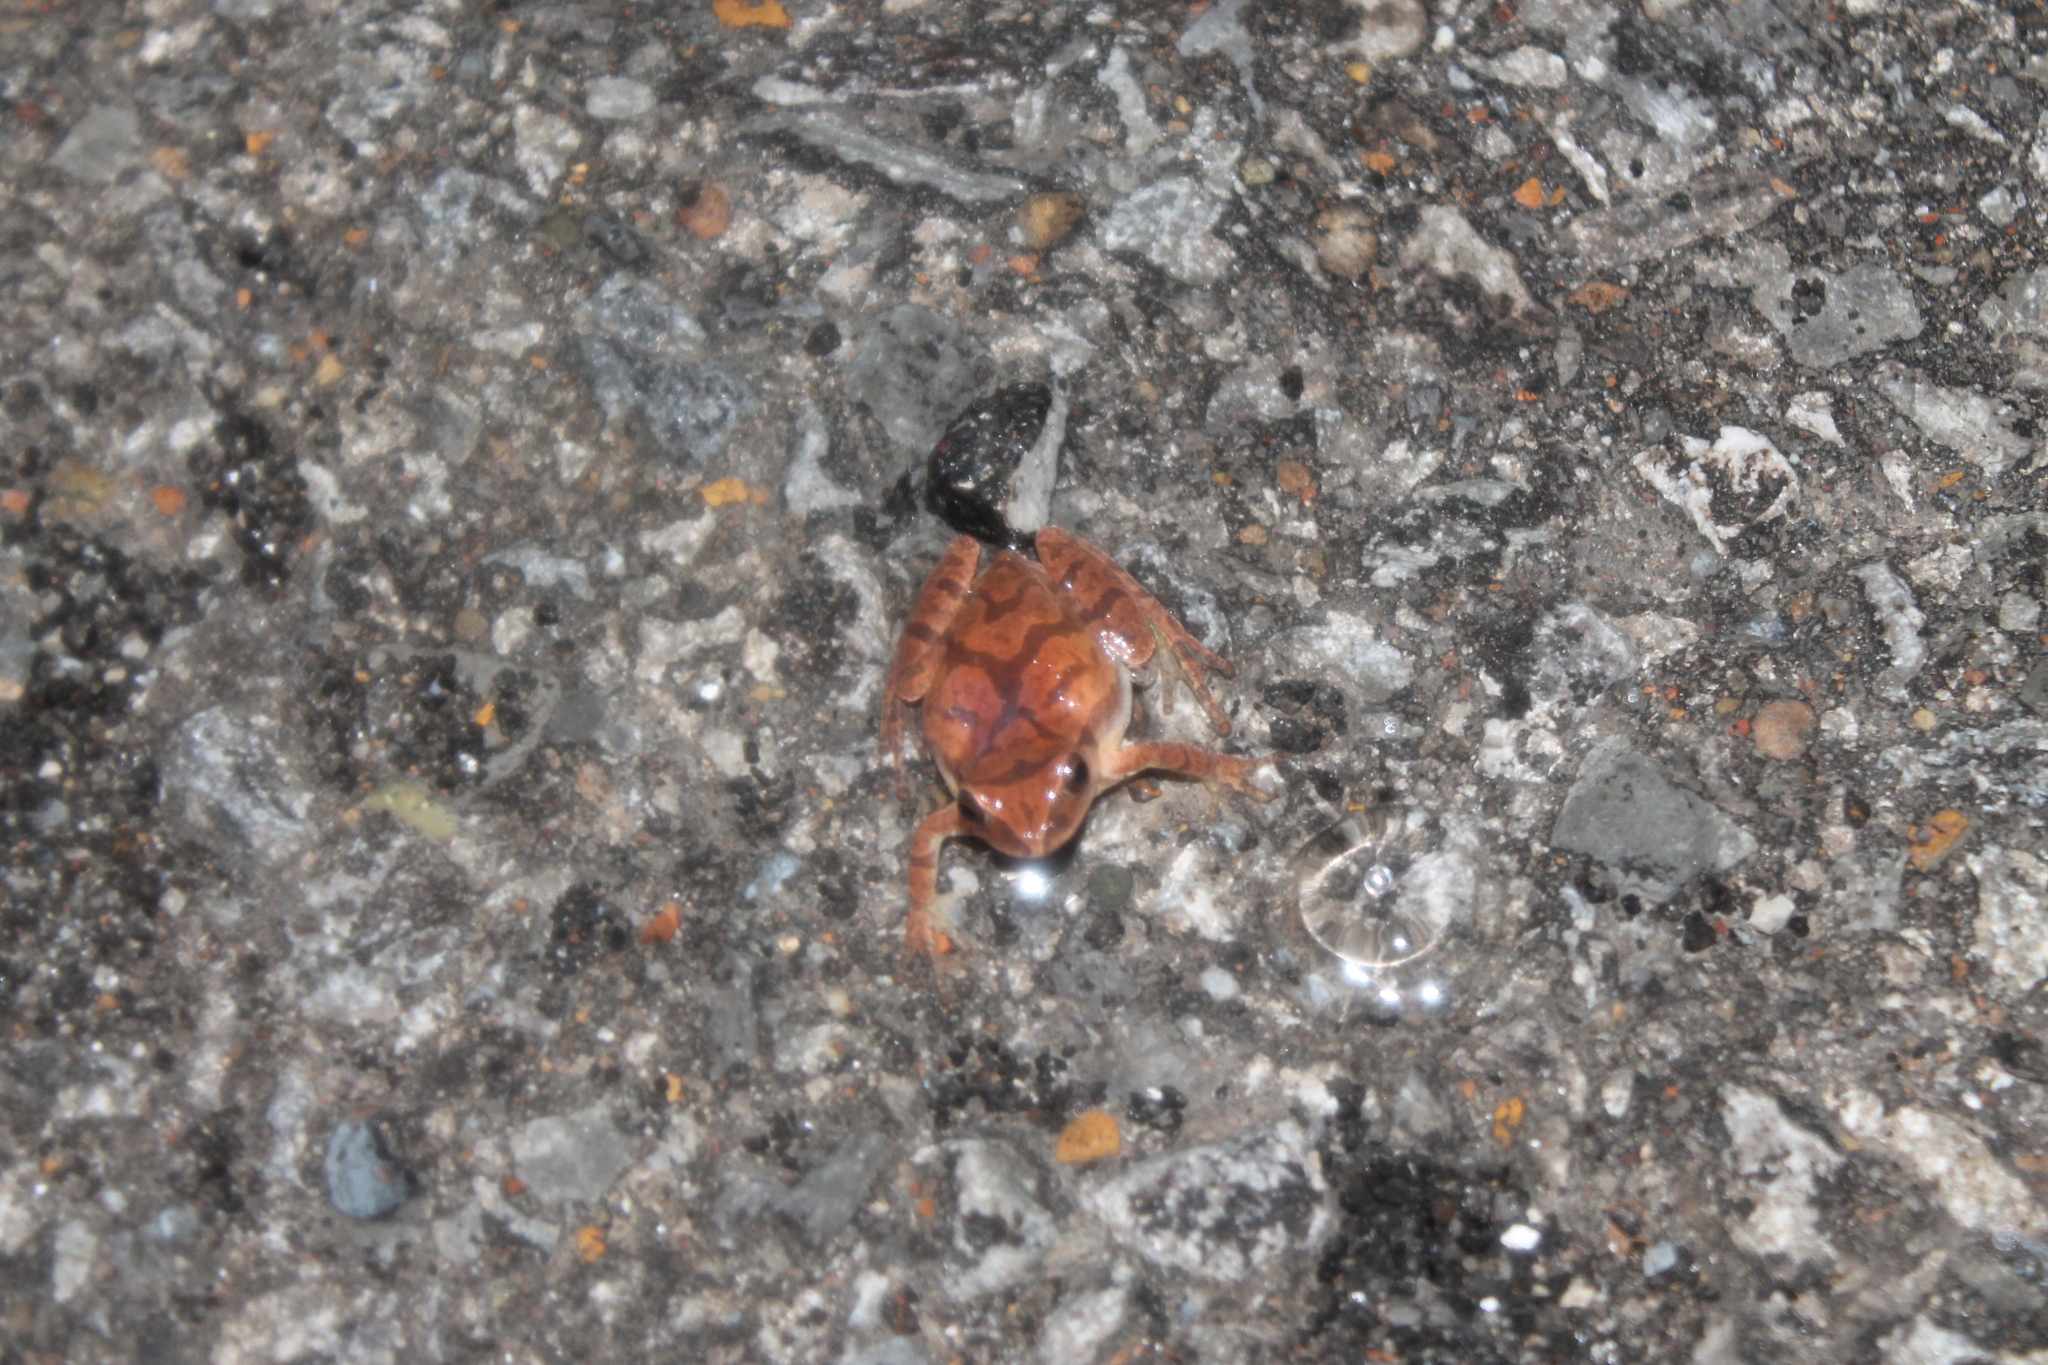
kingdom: Animalia
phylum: Chordata
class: Amphibia
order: Anura
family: Hylidae
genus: Pseudacris
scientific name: Pseudacris crucifer
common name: Spring peeper
